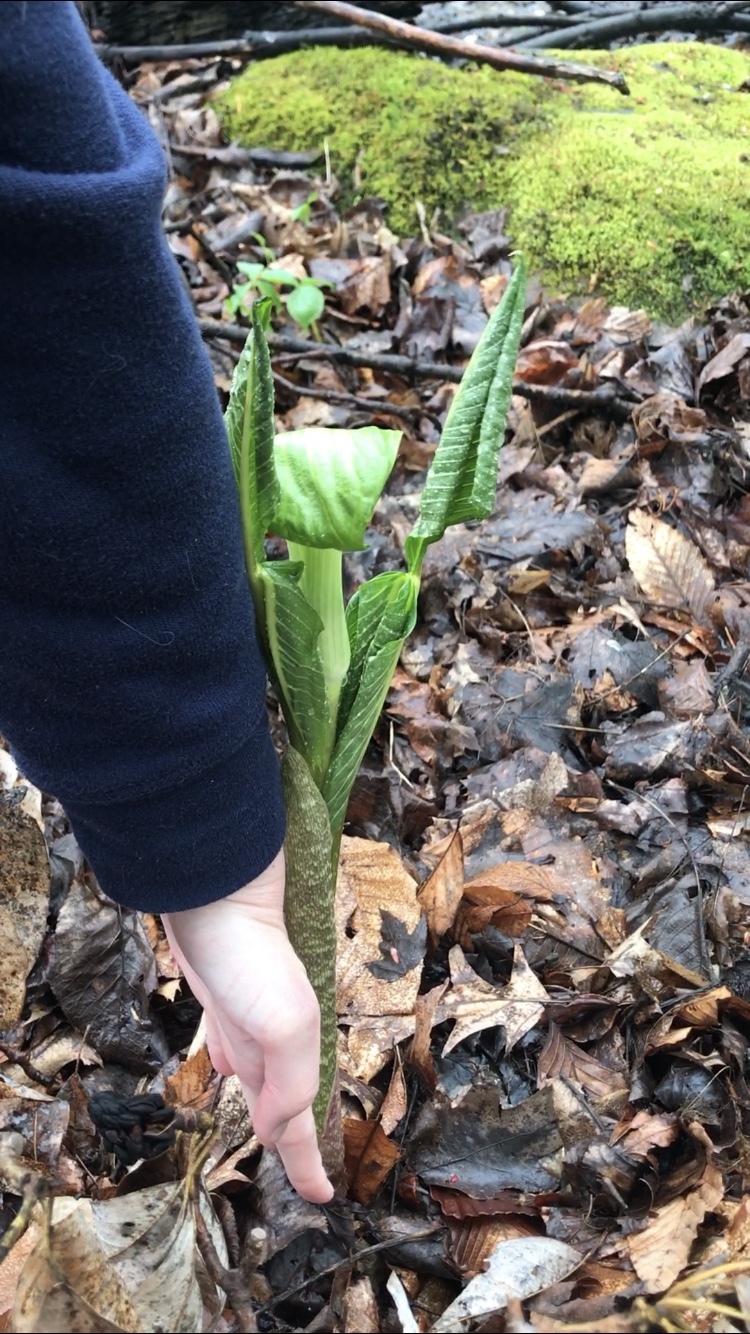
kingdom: Plantae
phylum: Tracheophyta
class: Liliopsida
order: Alismatales
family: Araceae
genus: Arisaema
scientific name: Arisaema triphyllum
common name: Jack-in-the-pulpit
